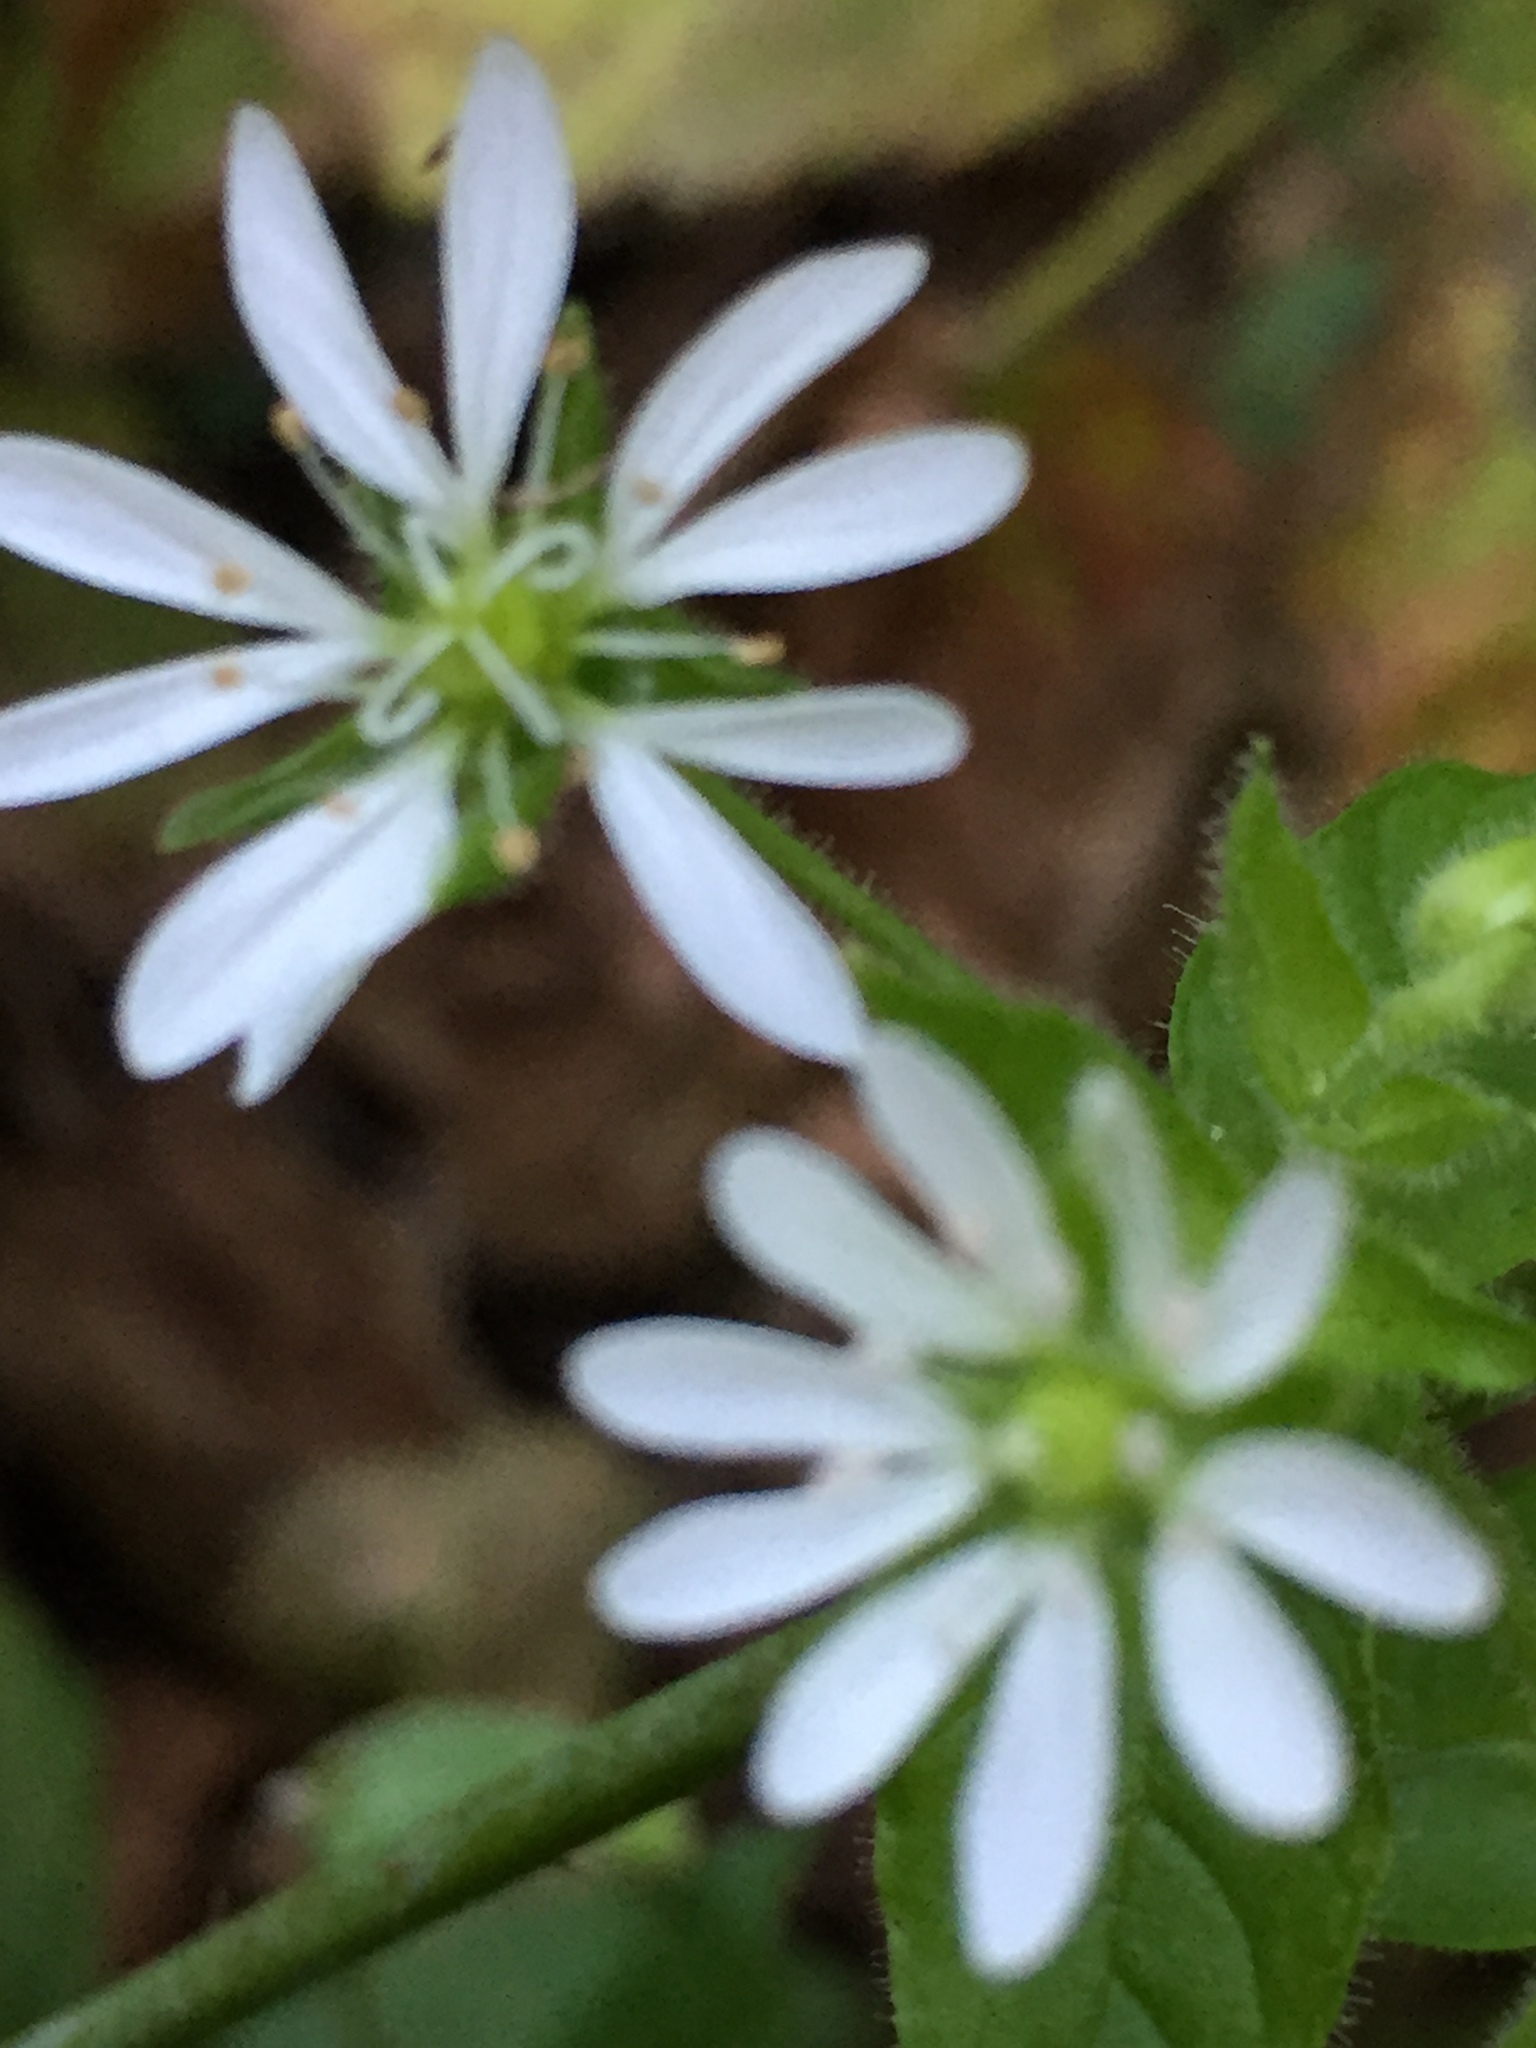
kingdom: Plantae
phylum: Tracheophyta
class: Magnoliopsida
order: Caryophyllales
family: Caryophyllaceae
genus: Stellaria
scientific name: Stellaria aquatica
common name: Water chickweed
